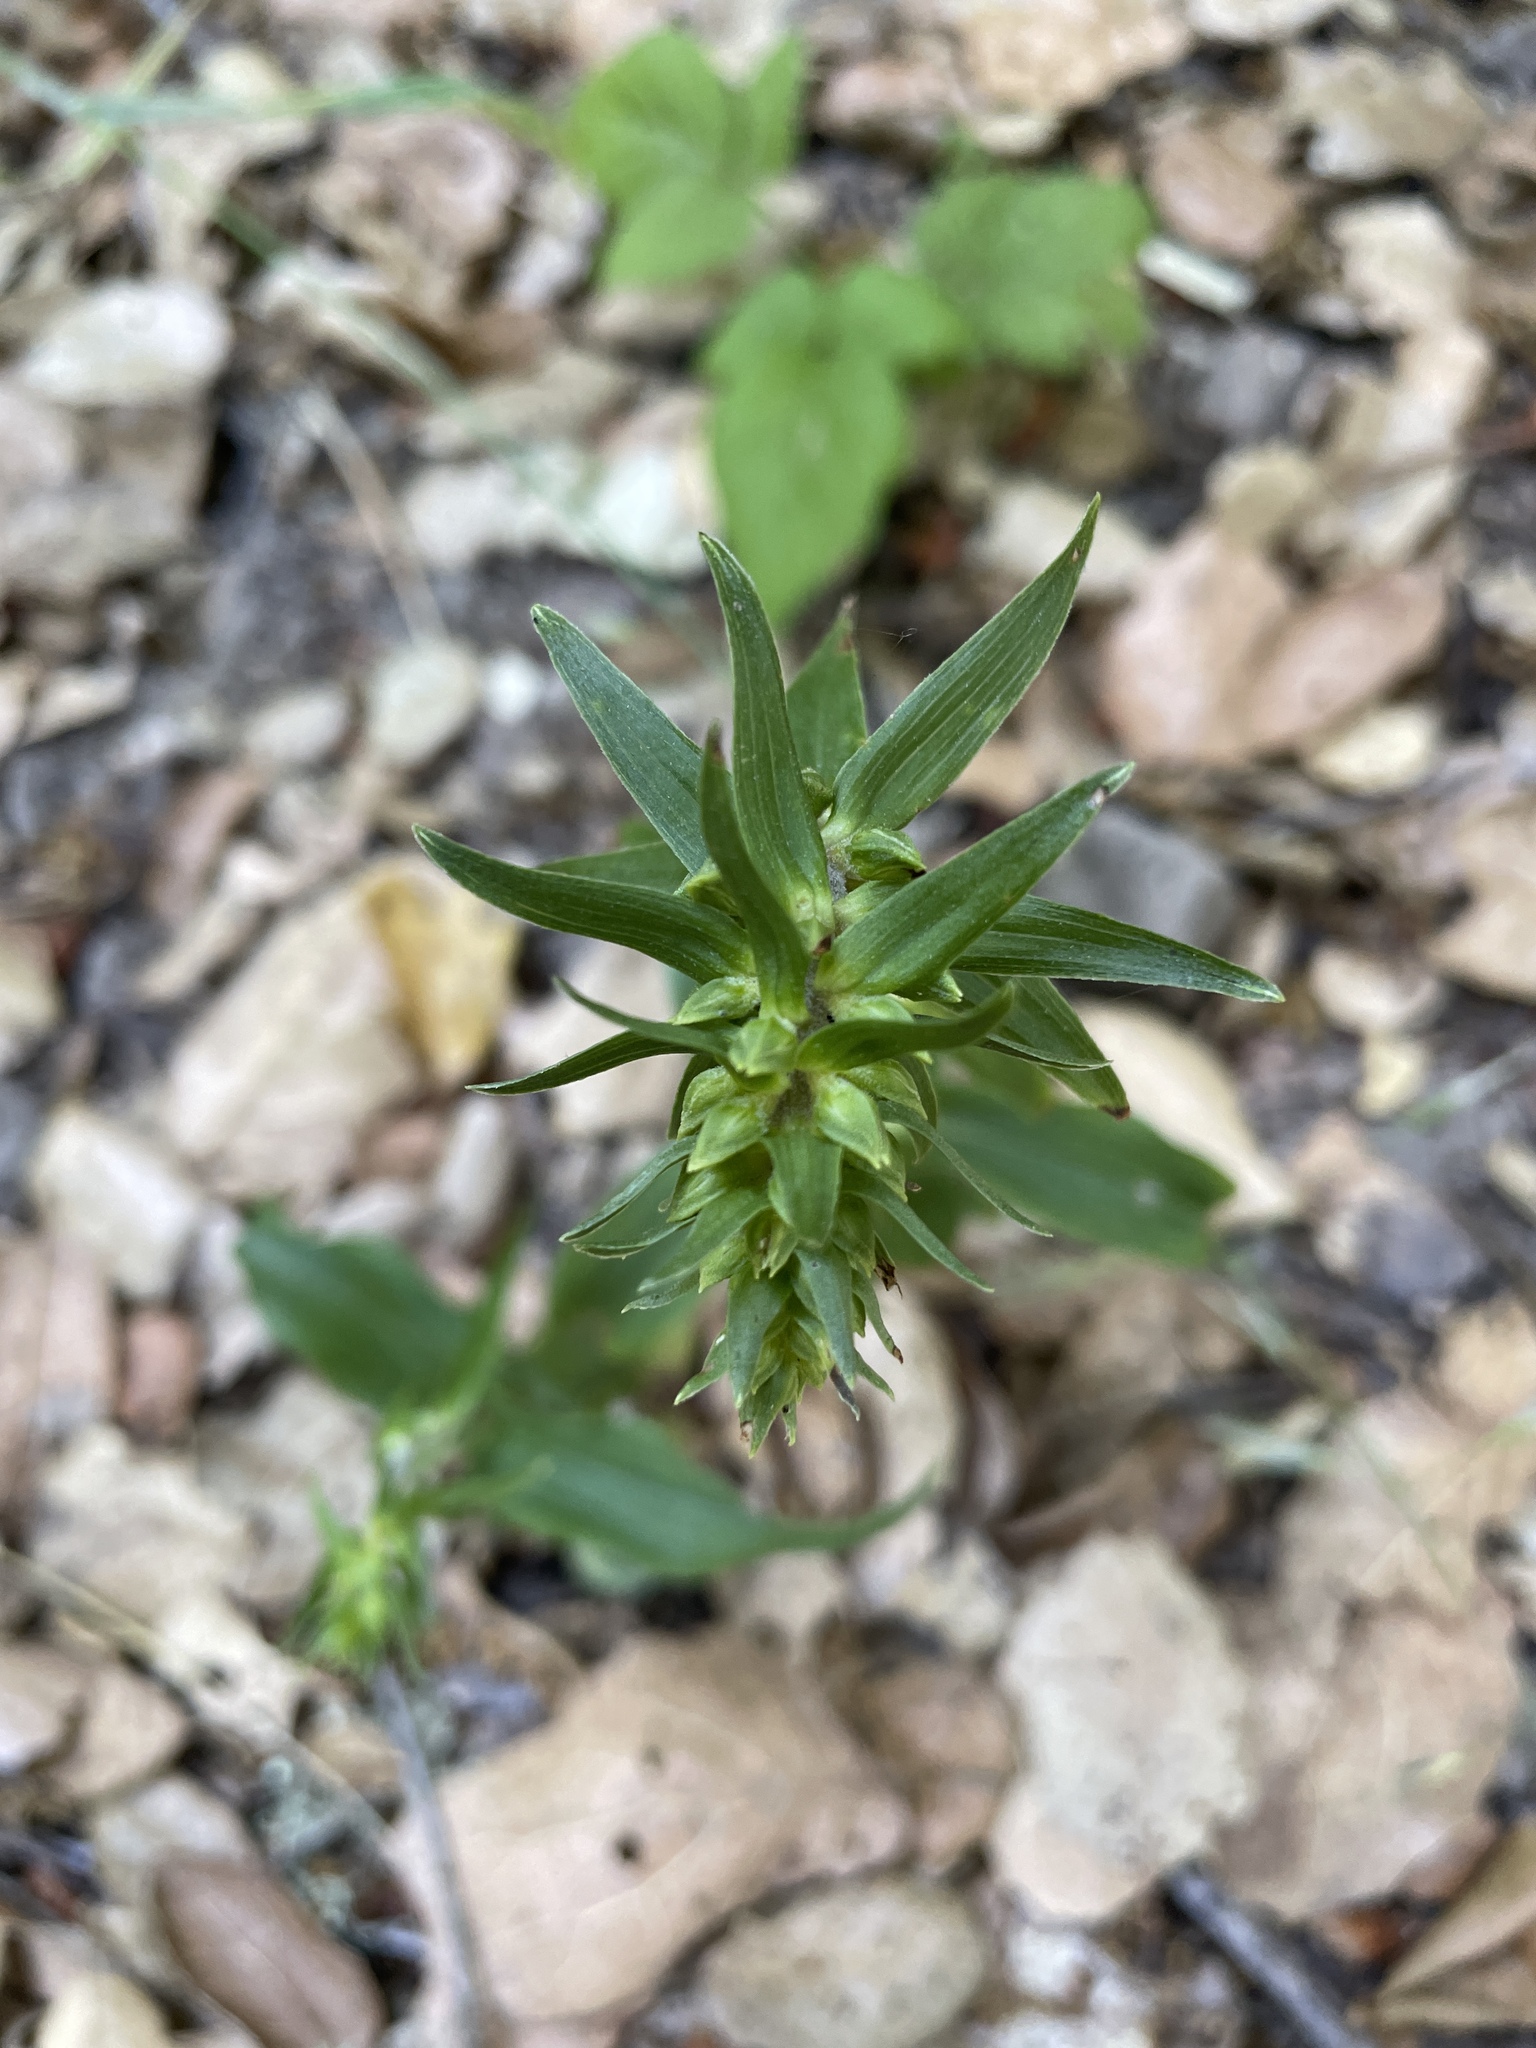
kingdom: Plantae
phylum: Tracheophyta
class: Liliopsida
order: Asparagales
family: Orchidaceae
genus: Epipactis
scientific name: Epipactis helleborine
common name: Broad-leaved helleborine
